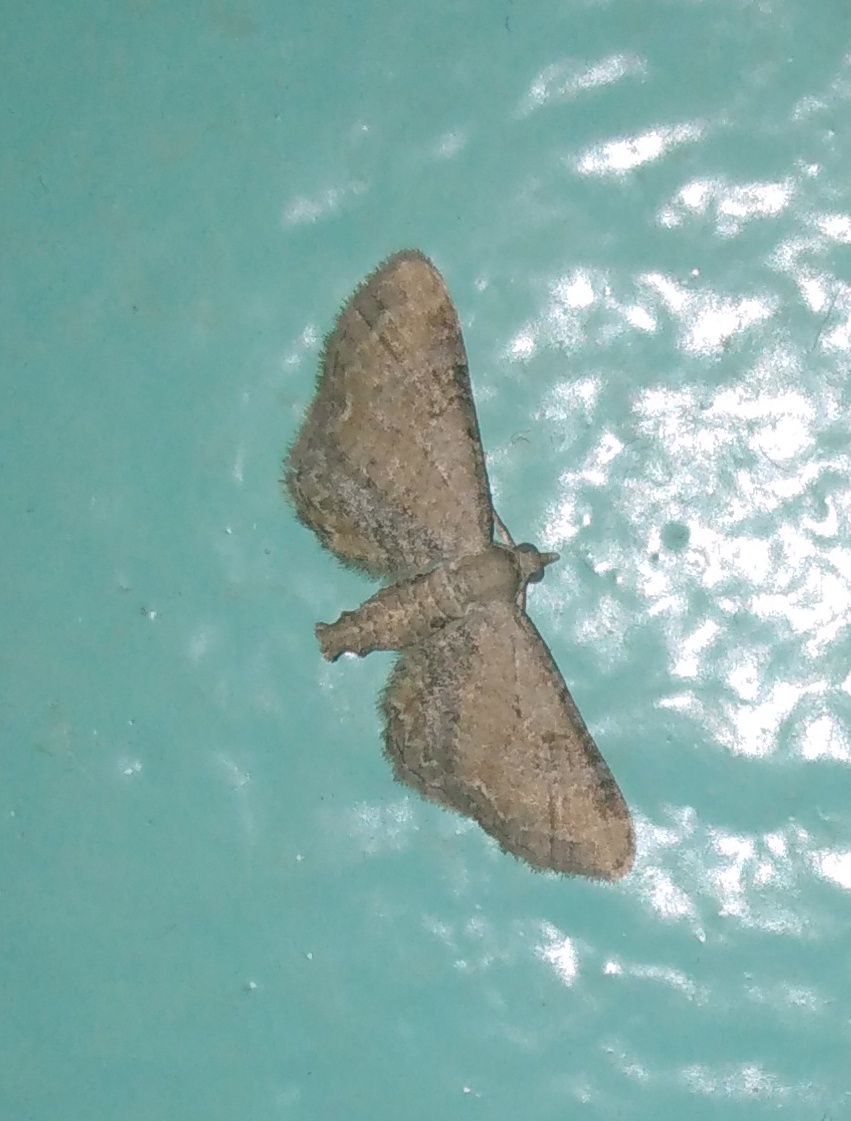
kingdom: Animalia
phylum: Arthropoda
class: Insecta
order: Lepidoptera
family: Geometridae
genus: Eupithecia
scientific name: Eupithecia simpliciata
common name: Plain pug
